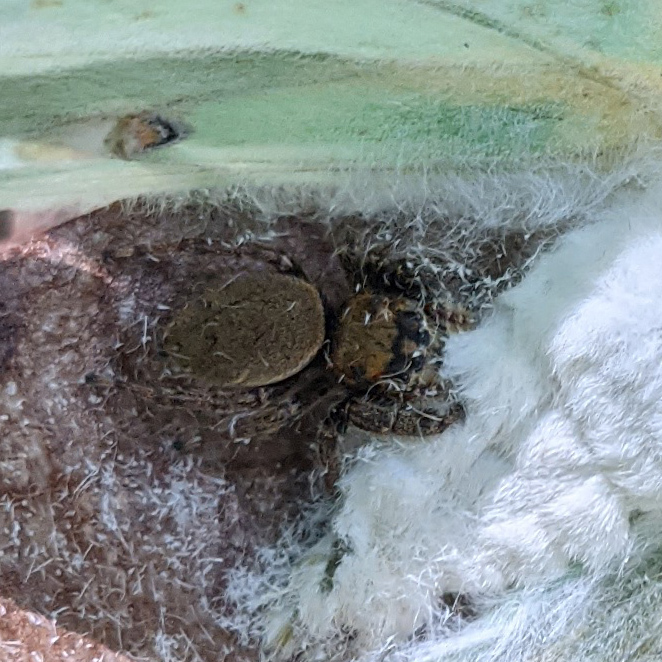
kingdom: Animalia
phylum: Arthropoda
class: Arachnida
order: Araneae
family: Salticidae
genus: Phidippus
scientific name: Phidippus whitmani
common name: Whitman's jumping spider
